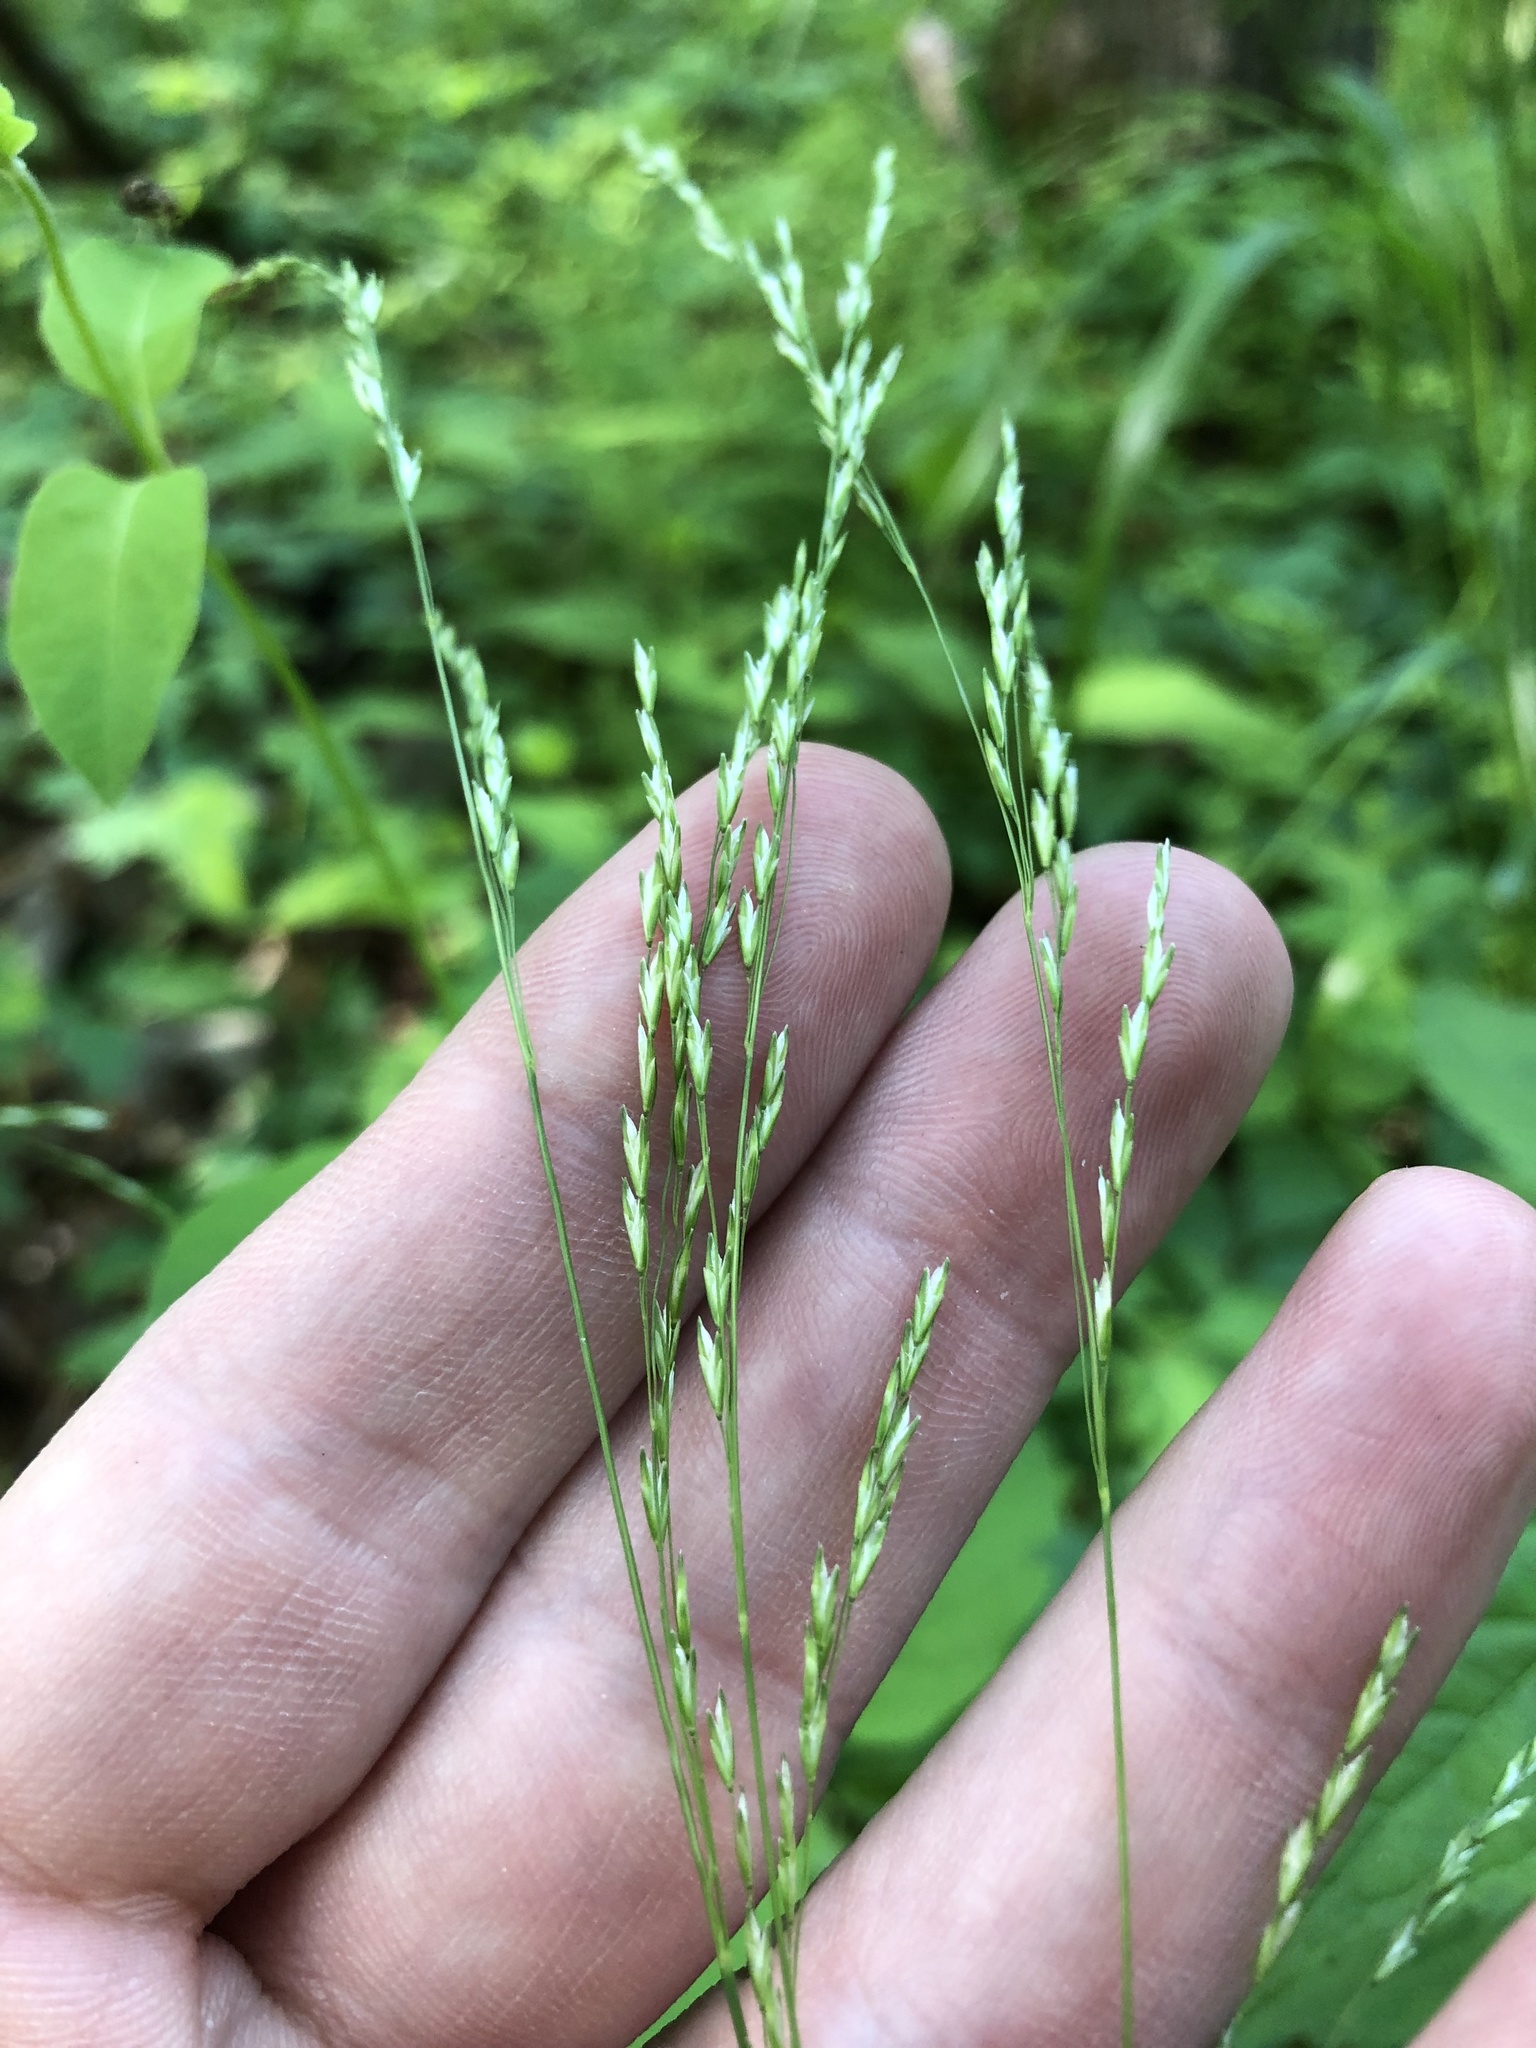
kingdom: Plantae
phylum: Tracheophyta
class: Liliopsida
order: Poales
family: Poaceae
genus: Sphenopholis
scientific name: Sphenopholis nitida
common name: Shiny wedgegrass
